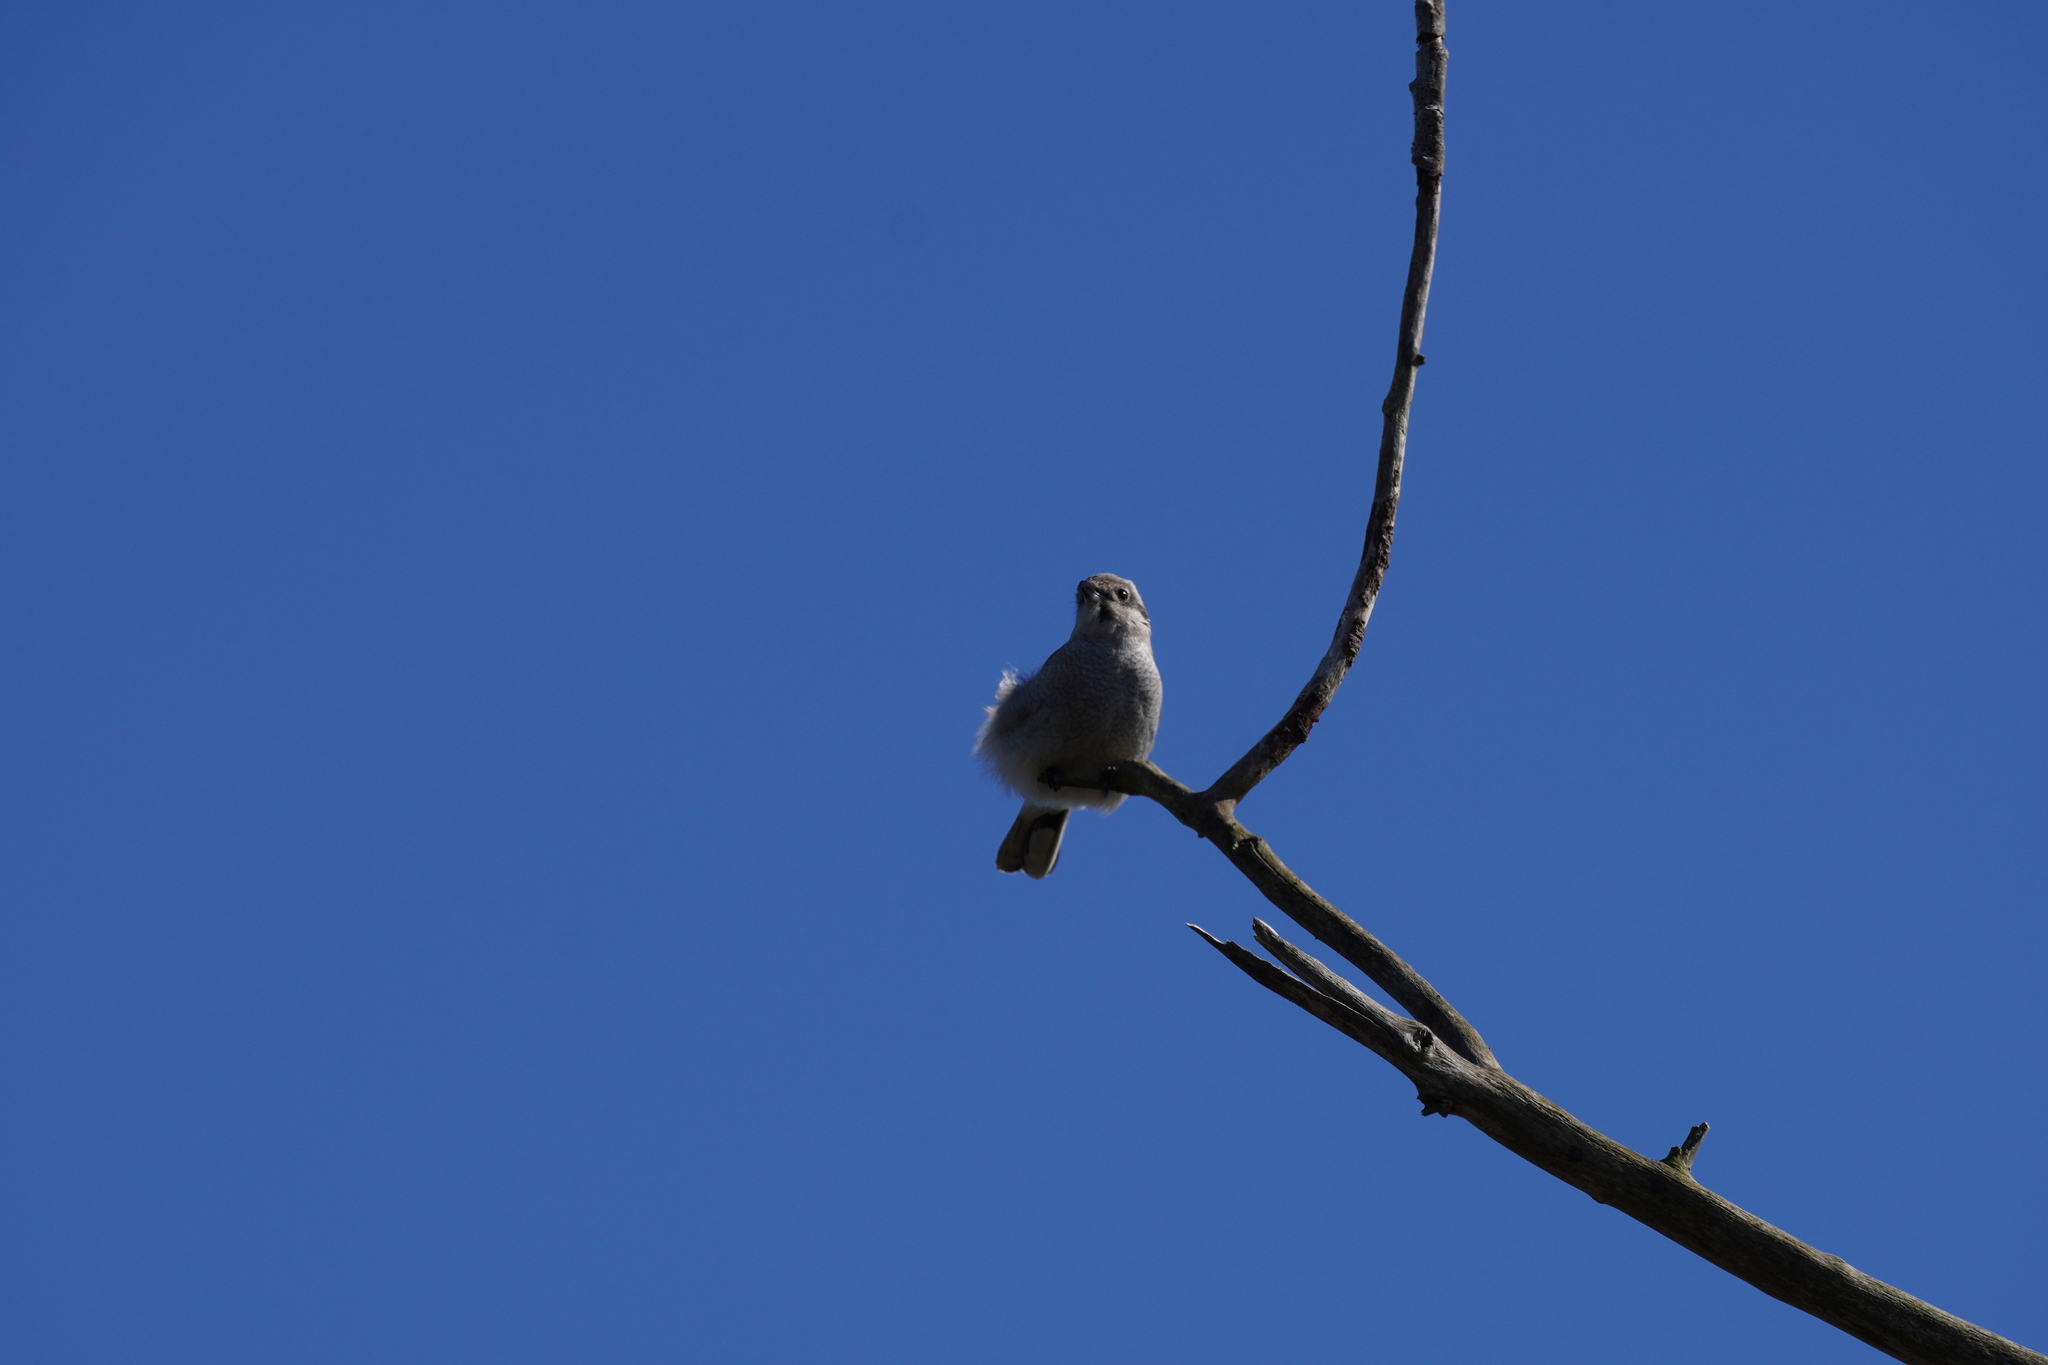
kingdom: Animalia
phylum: Chordata
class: Aves
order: Passeriformes
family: Laniidae
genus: Lanius
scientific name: Lanius borealis
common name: Northern shrike
